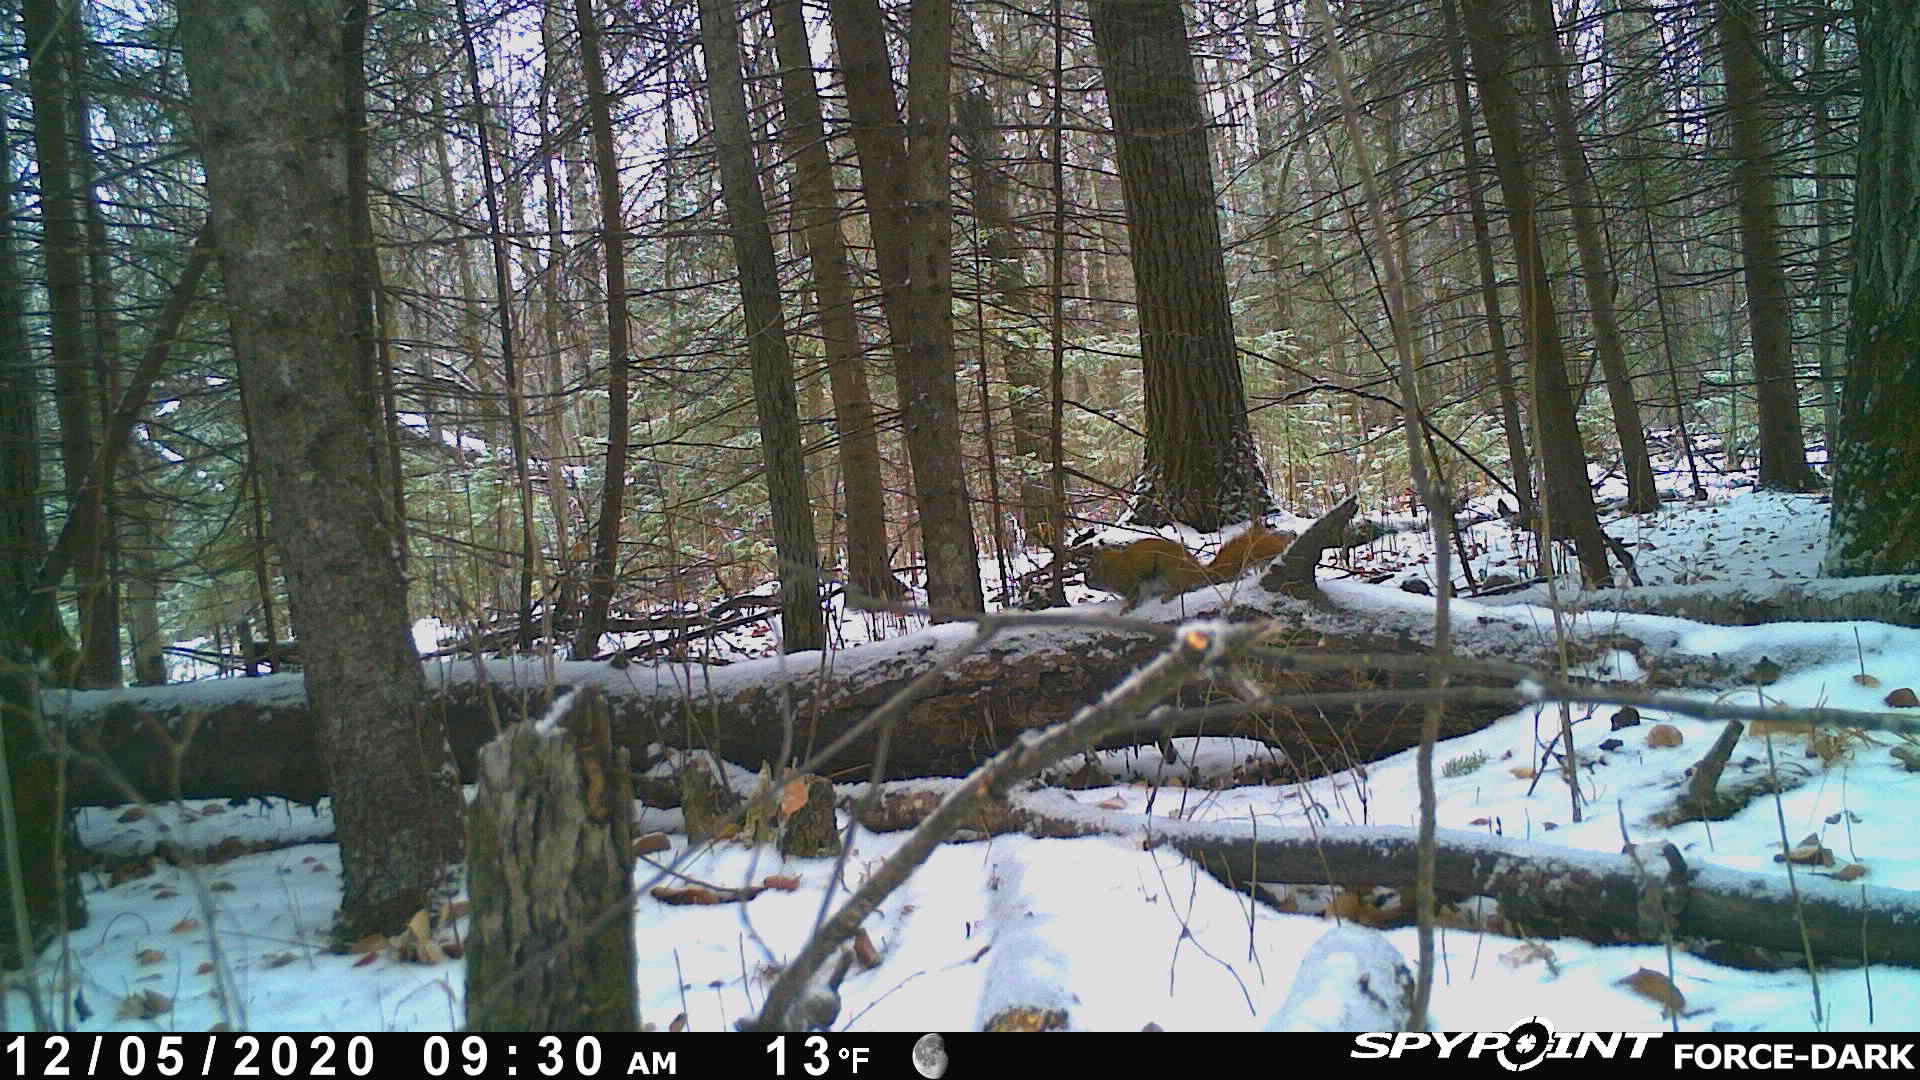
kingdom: Animalia
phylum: Chordata
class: Mammalia
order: Rodentia
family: Sciuridae
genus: Tamiasciurus
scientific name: Tamiasciurus hudsonicus
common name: Red squirrel
